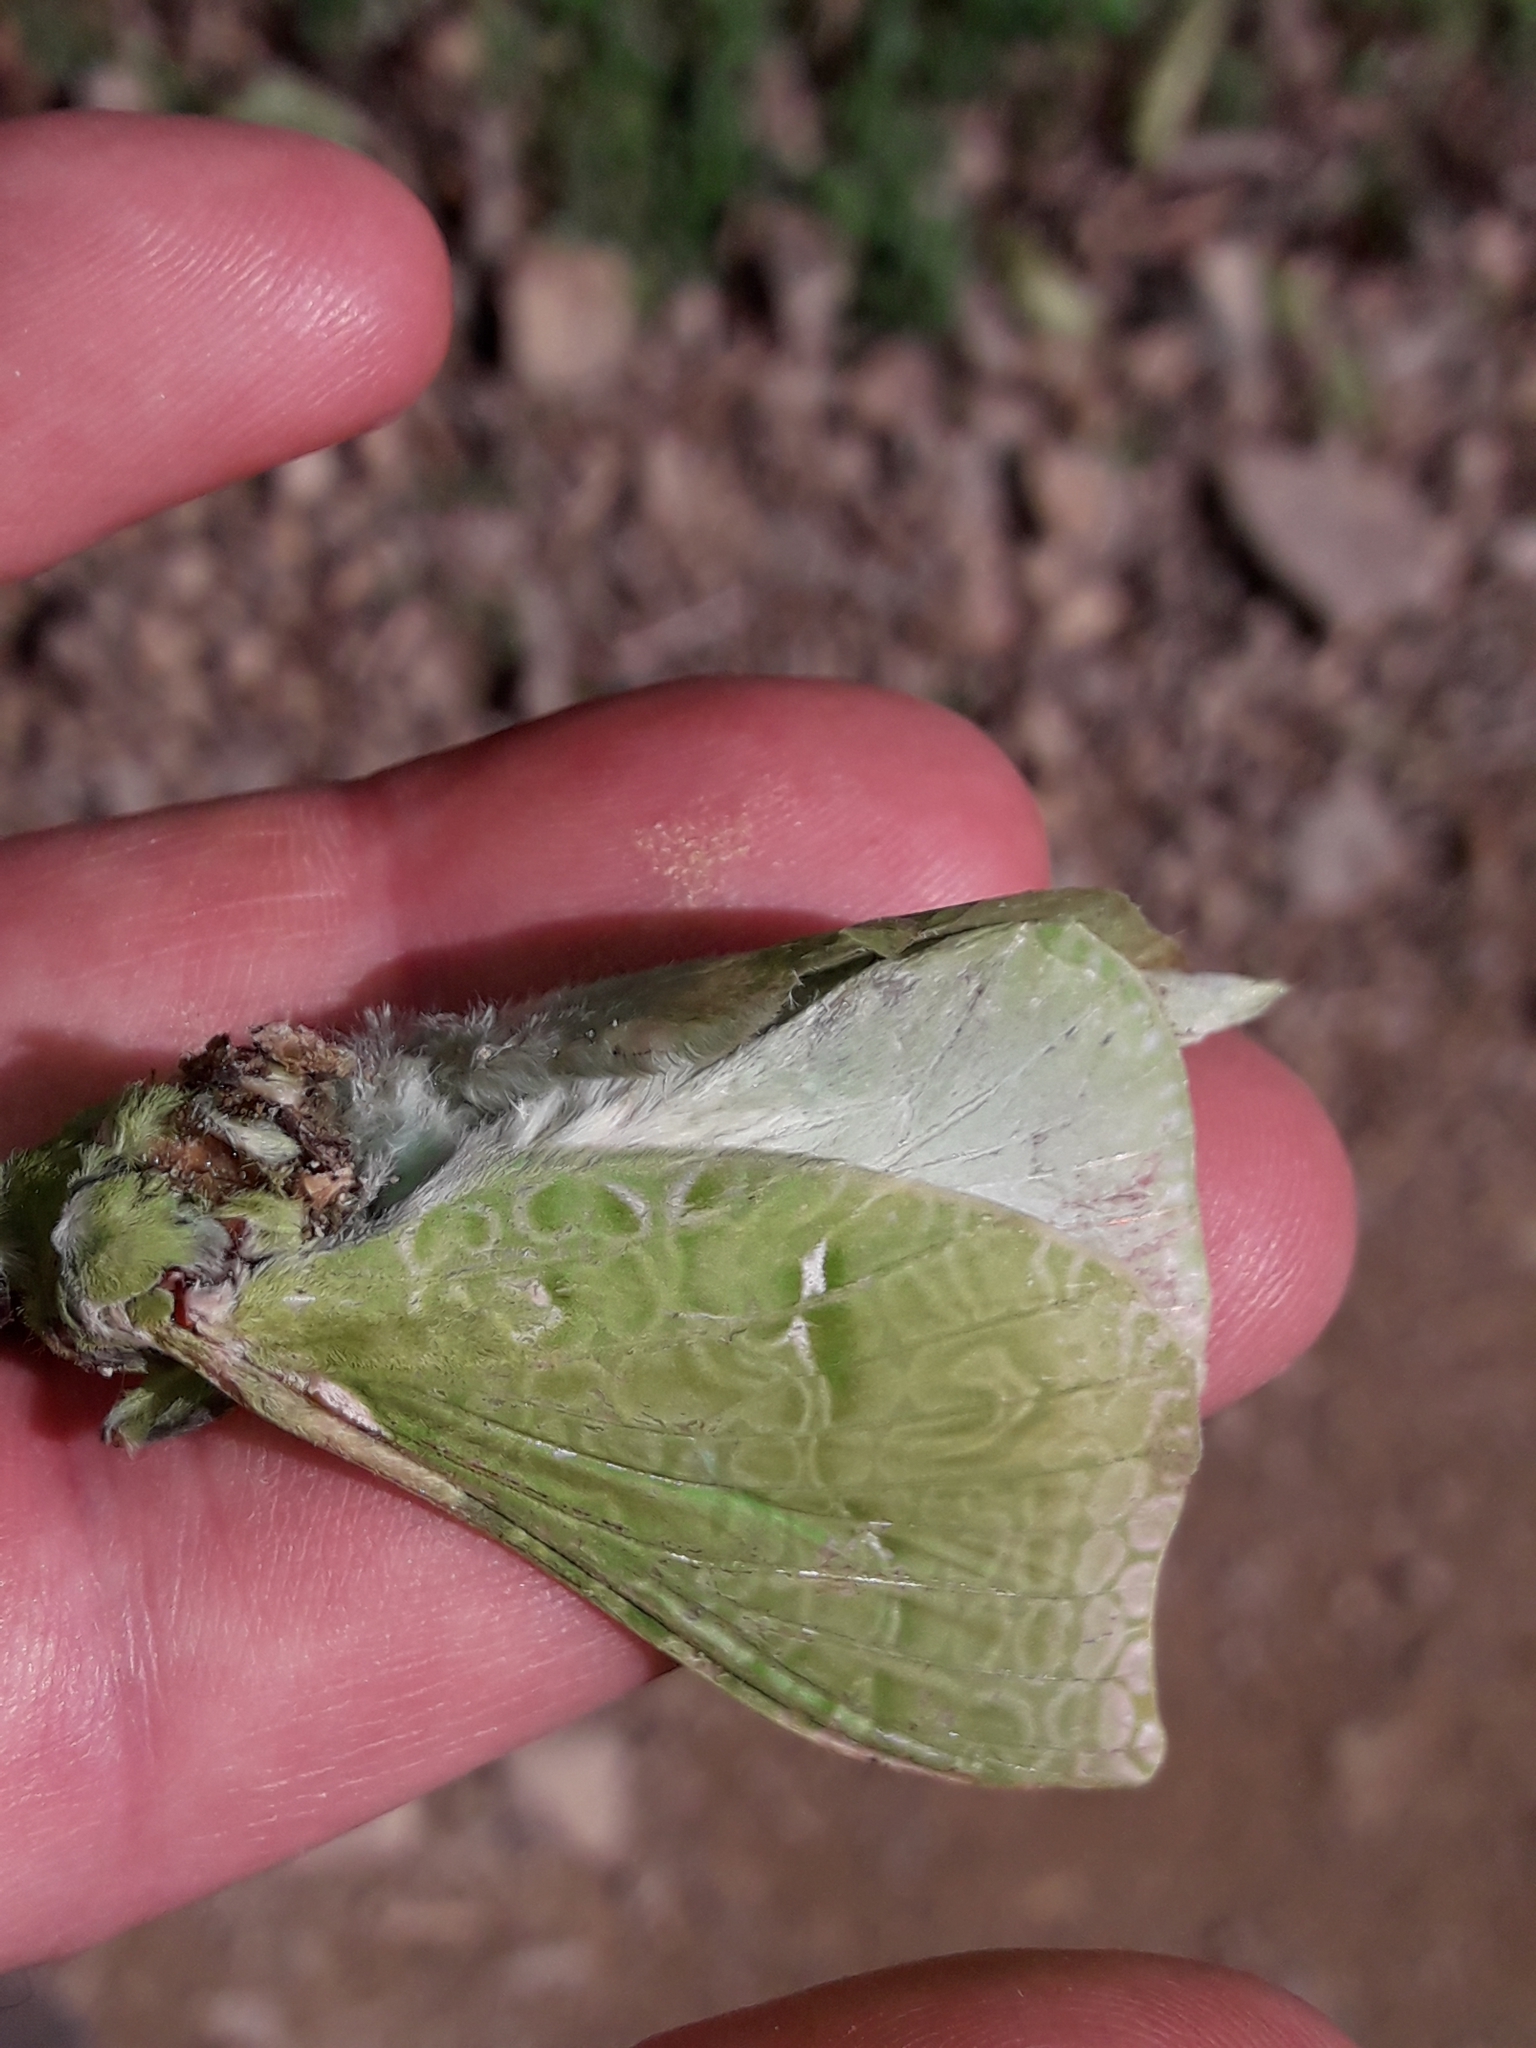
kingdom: Animalia
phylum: Arthropoda
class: Insecta
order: Lepidoptera
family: Hepialidae
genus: Aenetus
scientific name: Aenetus virescens
